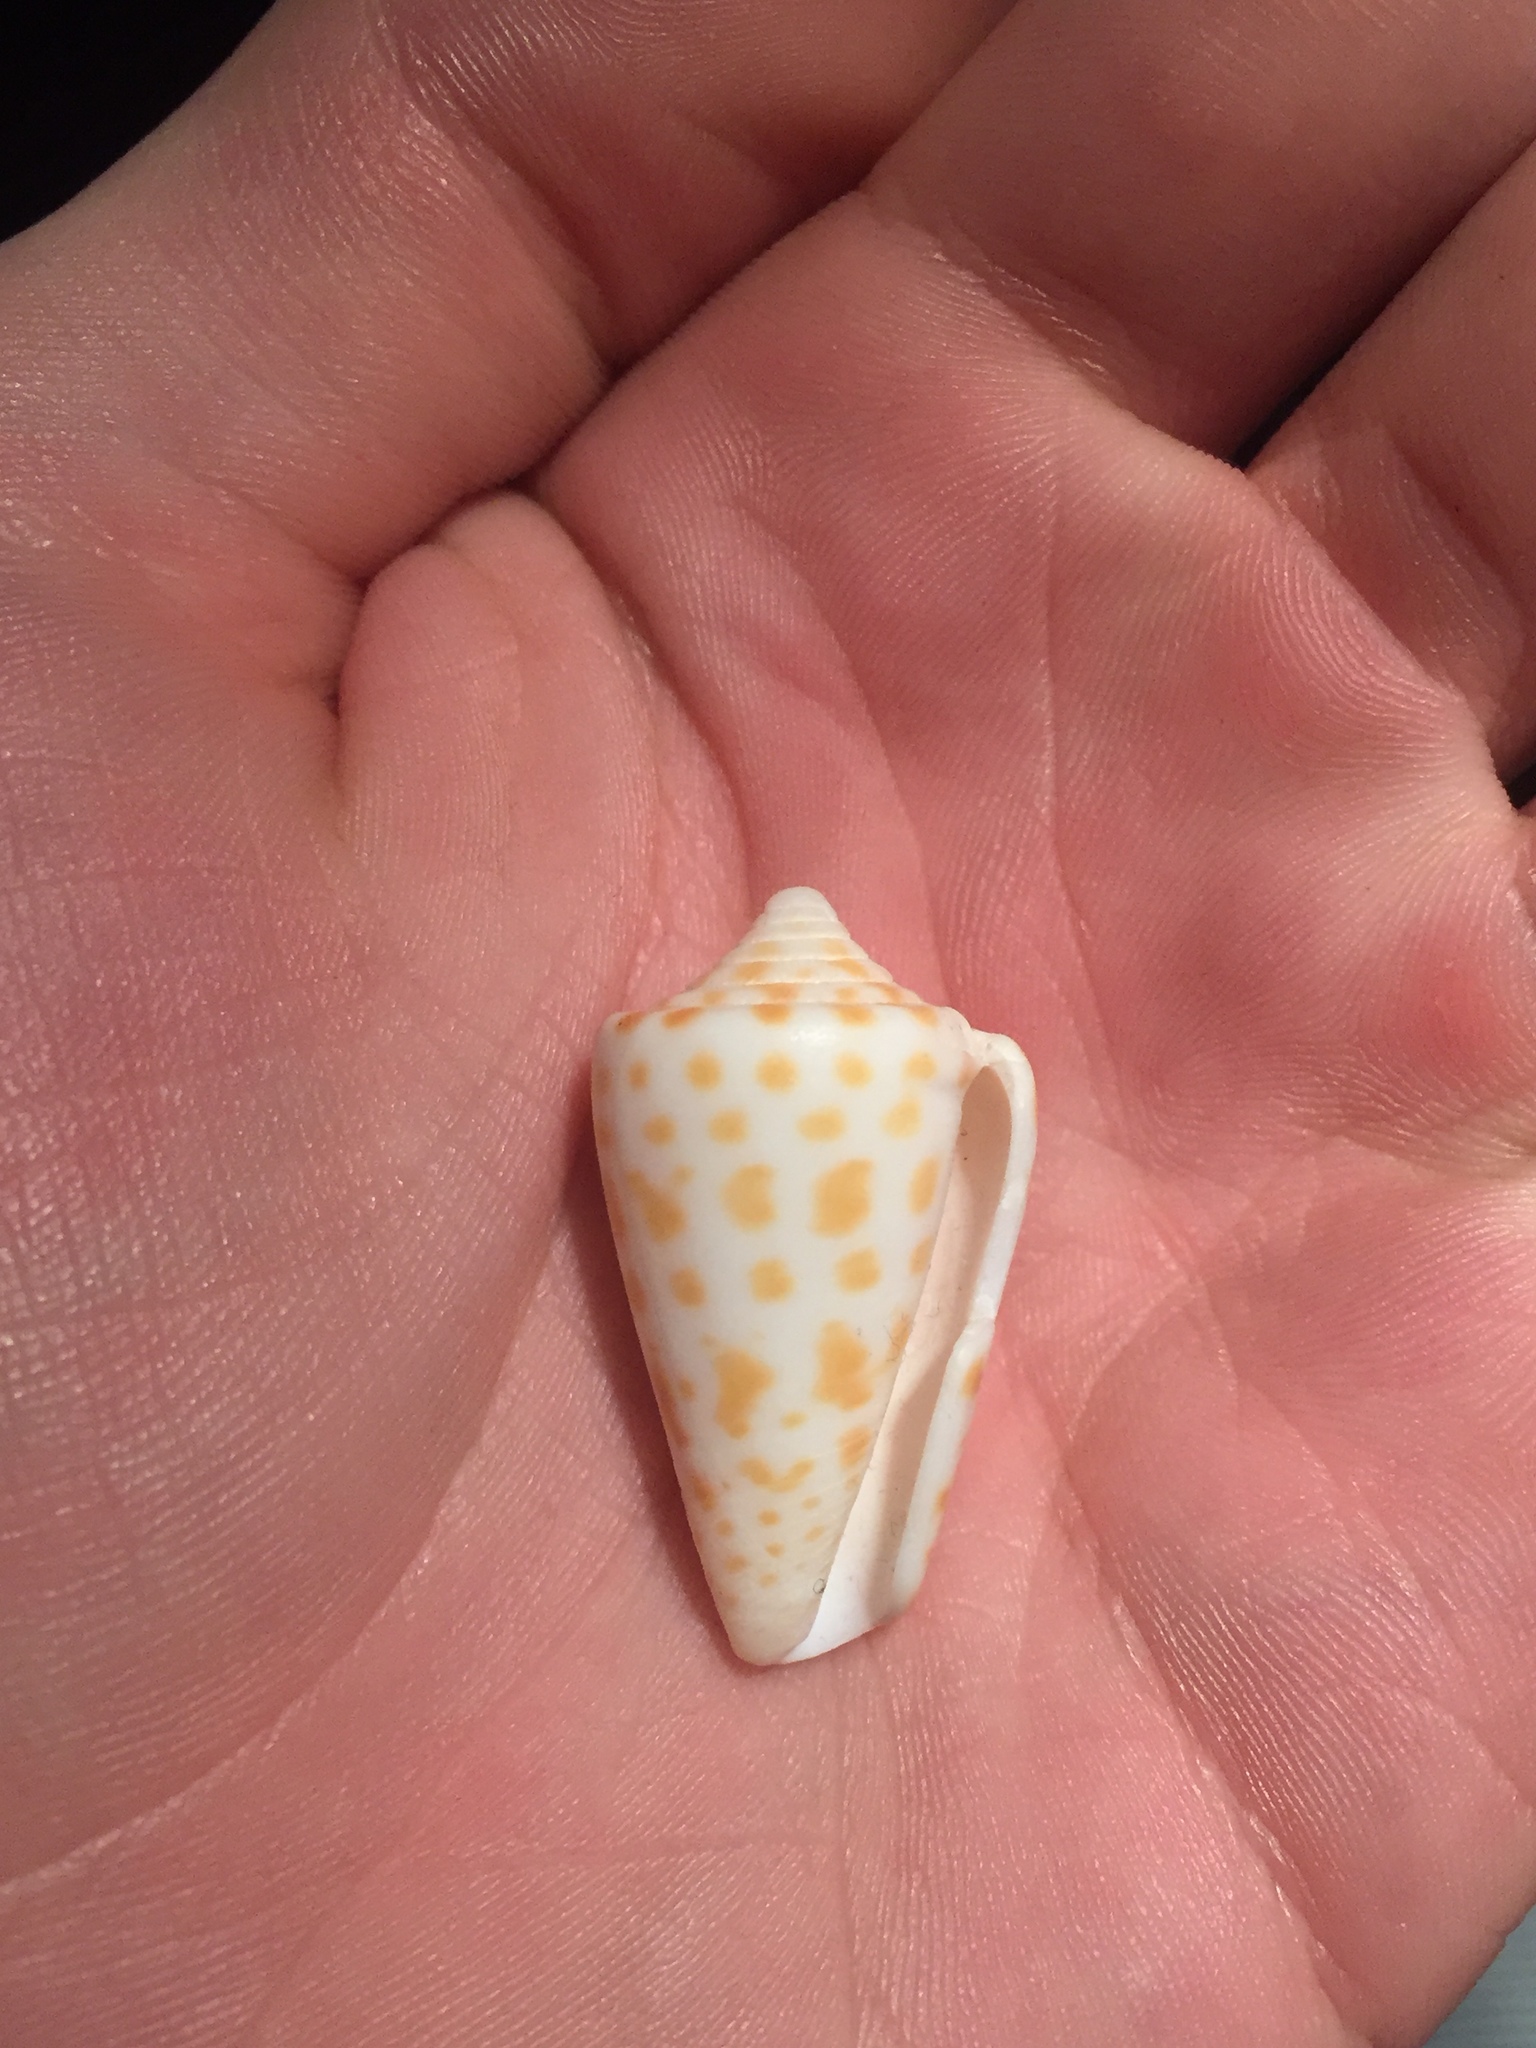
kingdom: Animalia
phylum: Mollusca
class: Gastropoda
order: Neogastropoda
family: Conidae
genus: Conus
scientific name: Conus spurius
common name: Alphabet cone
